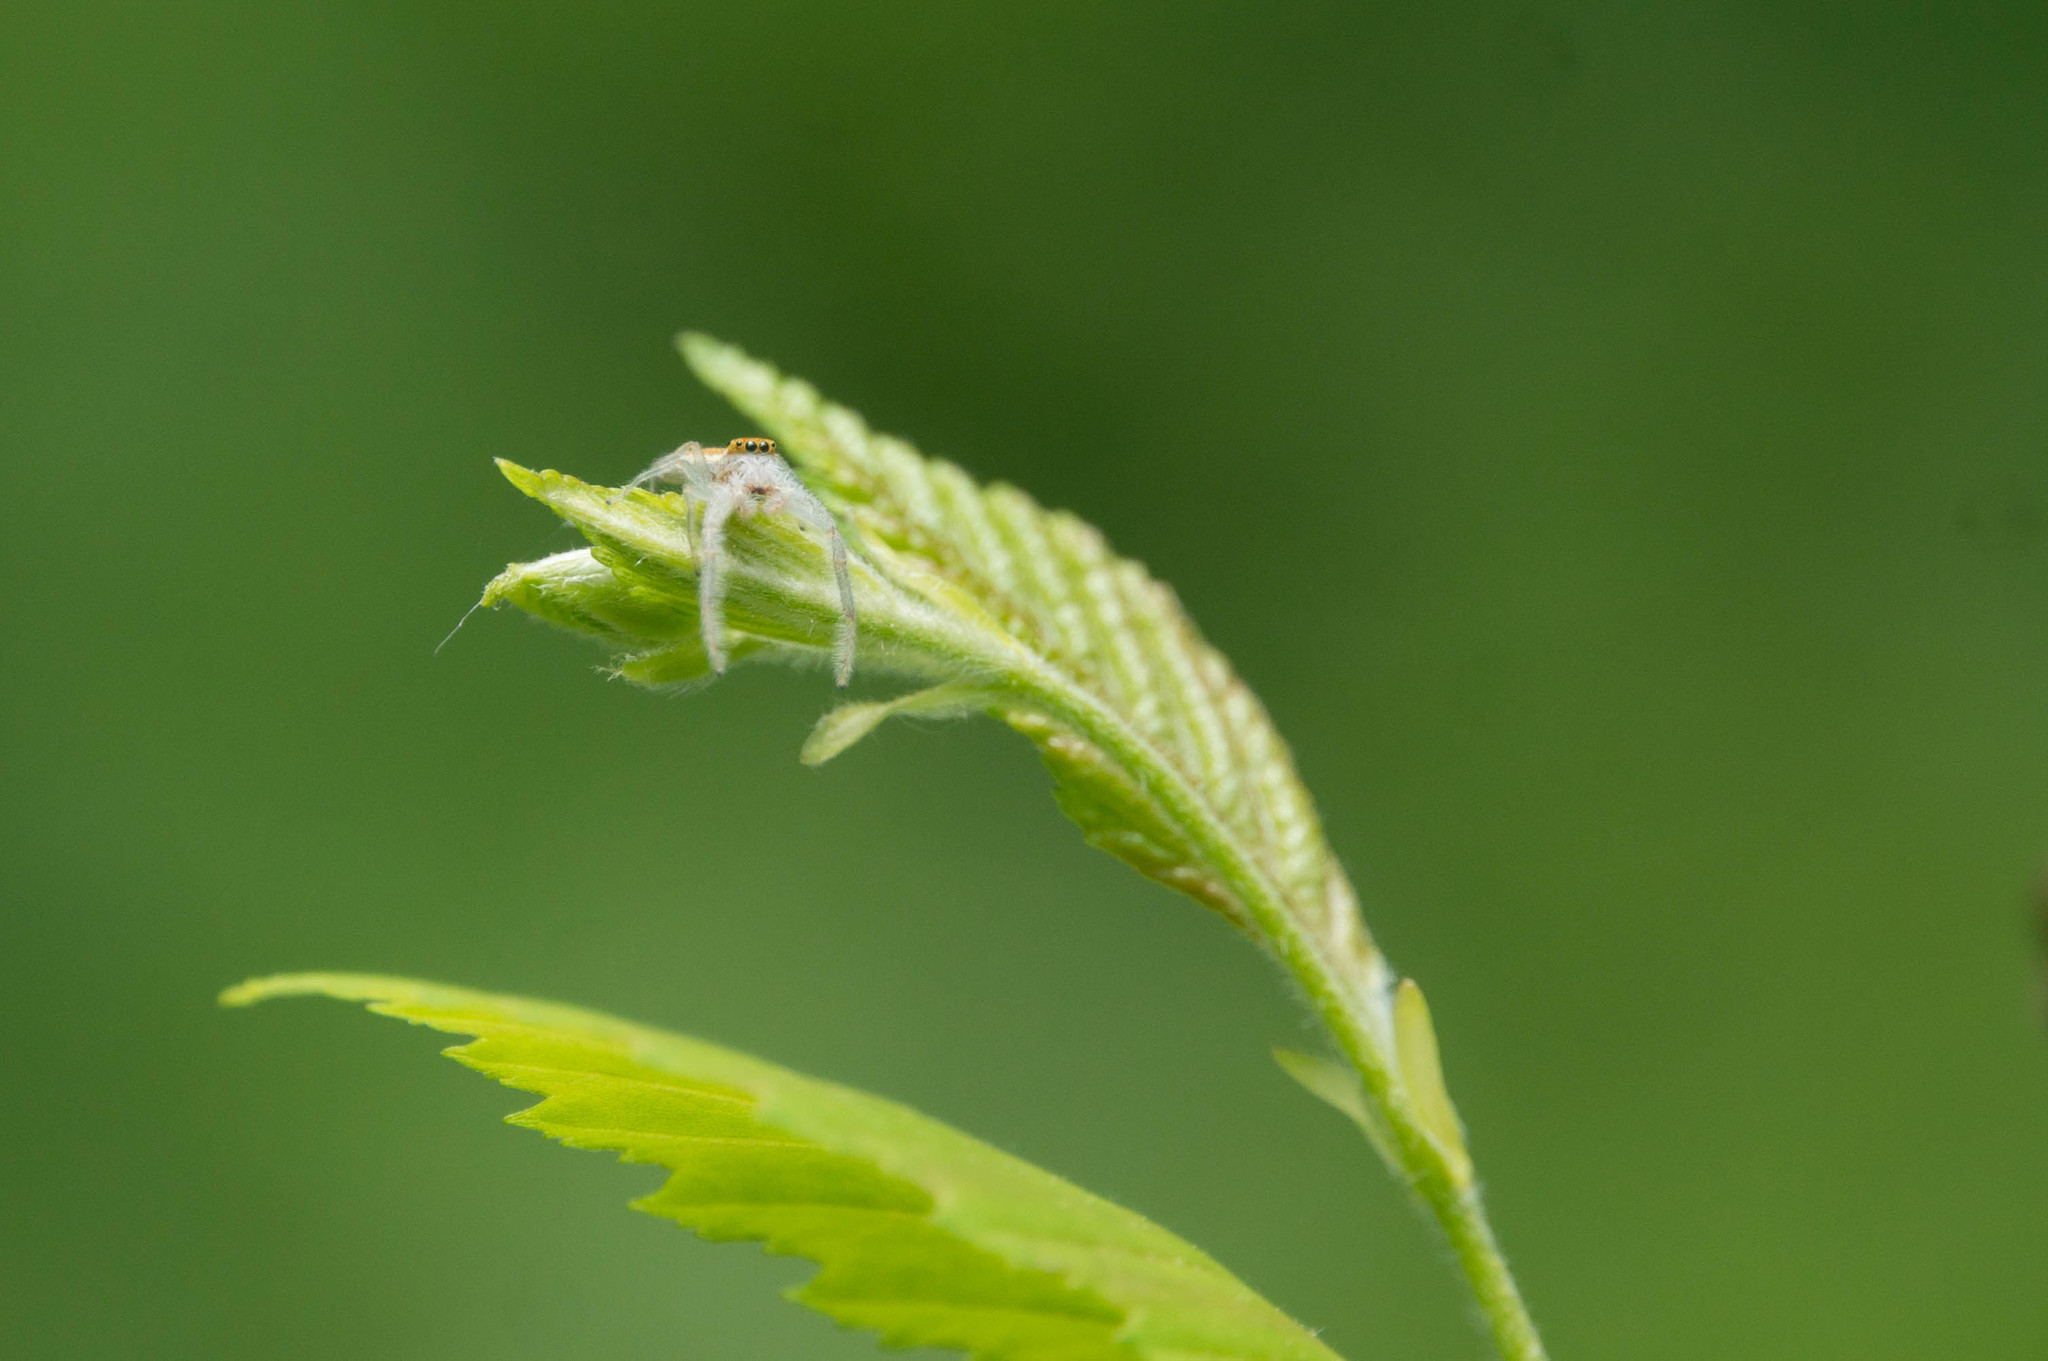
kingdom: Animalia
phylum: Arthropoda
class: Arachnida
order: Araneae
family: Salticidae
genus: Hentzia
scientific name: Hentzia mitrata
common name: White-jawed jumping spider
